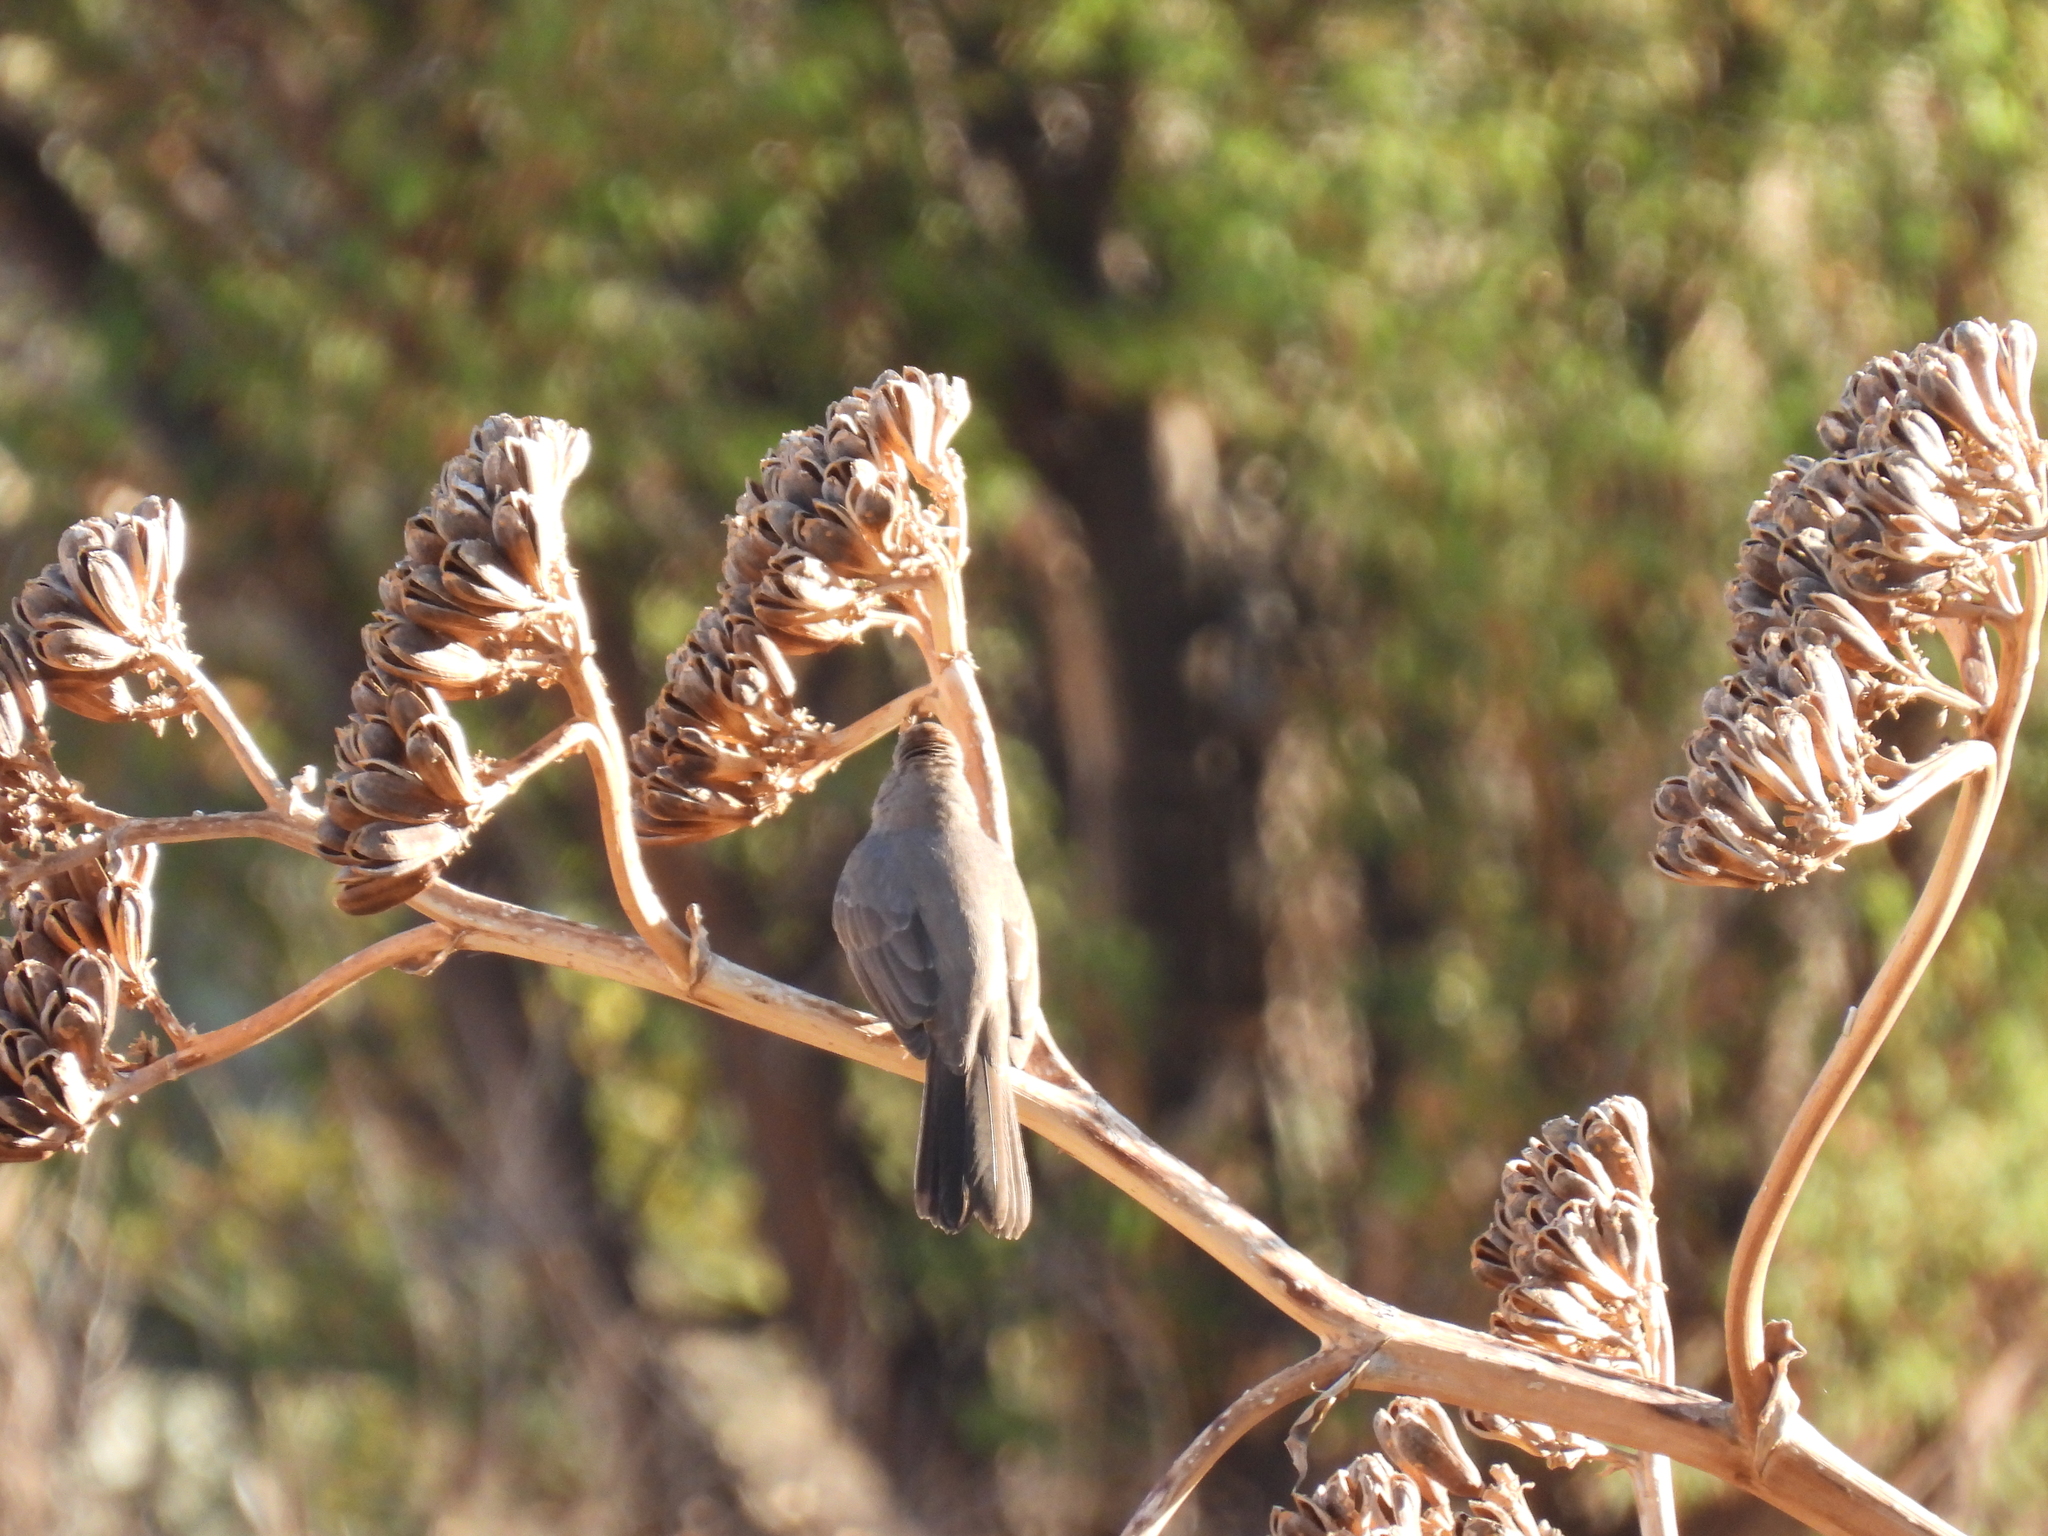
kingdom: Animalia
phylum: Chordata
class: Aves
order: Passeriformes
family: Parulidae
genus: Leiothlypis
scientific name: Leiothlypis luciae
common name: Lucy's warbler
